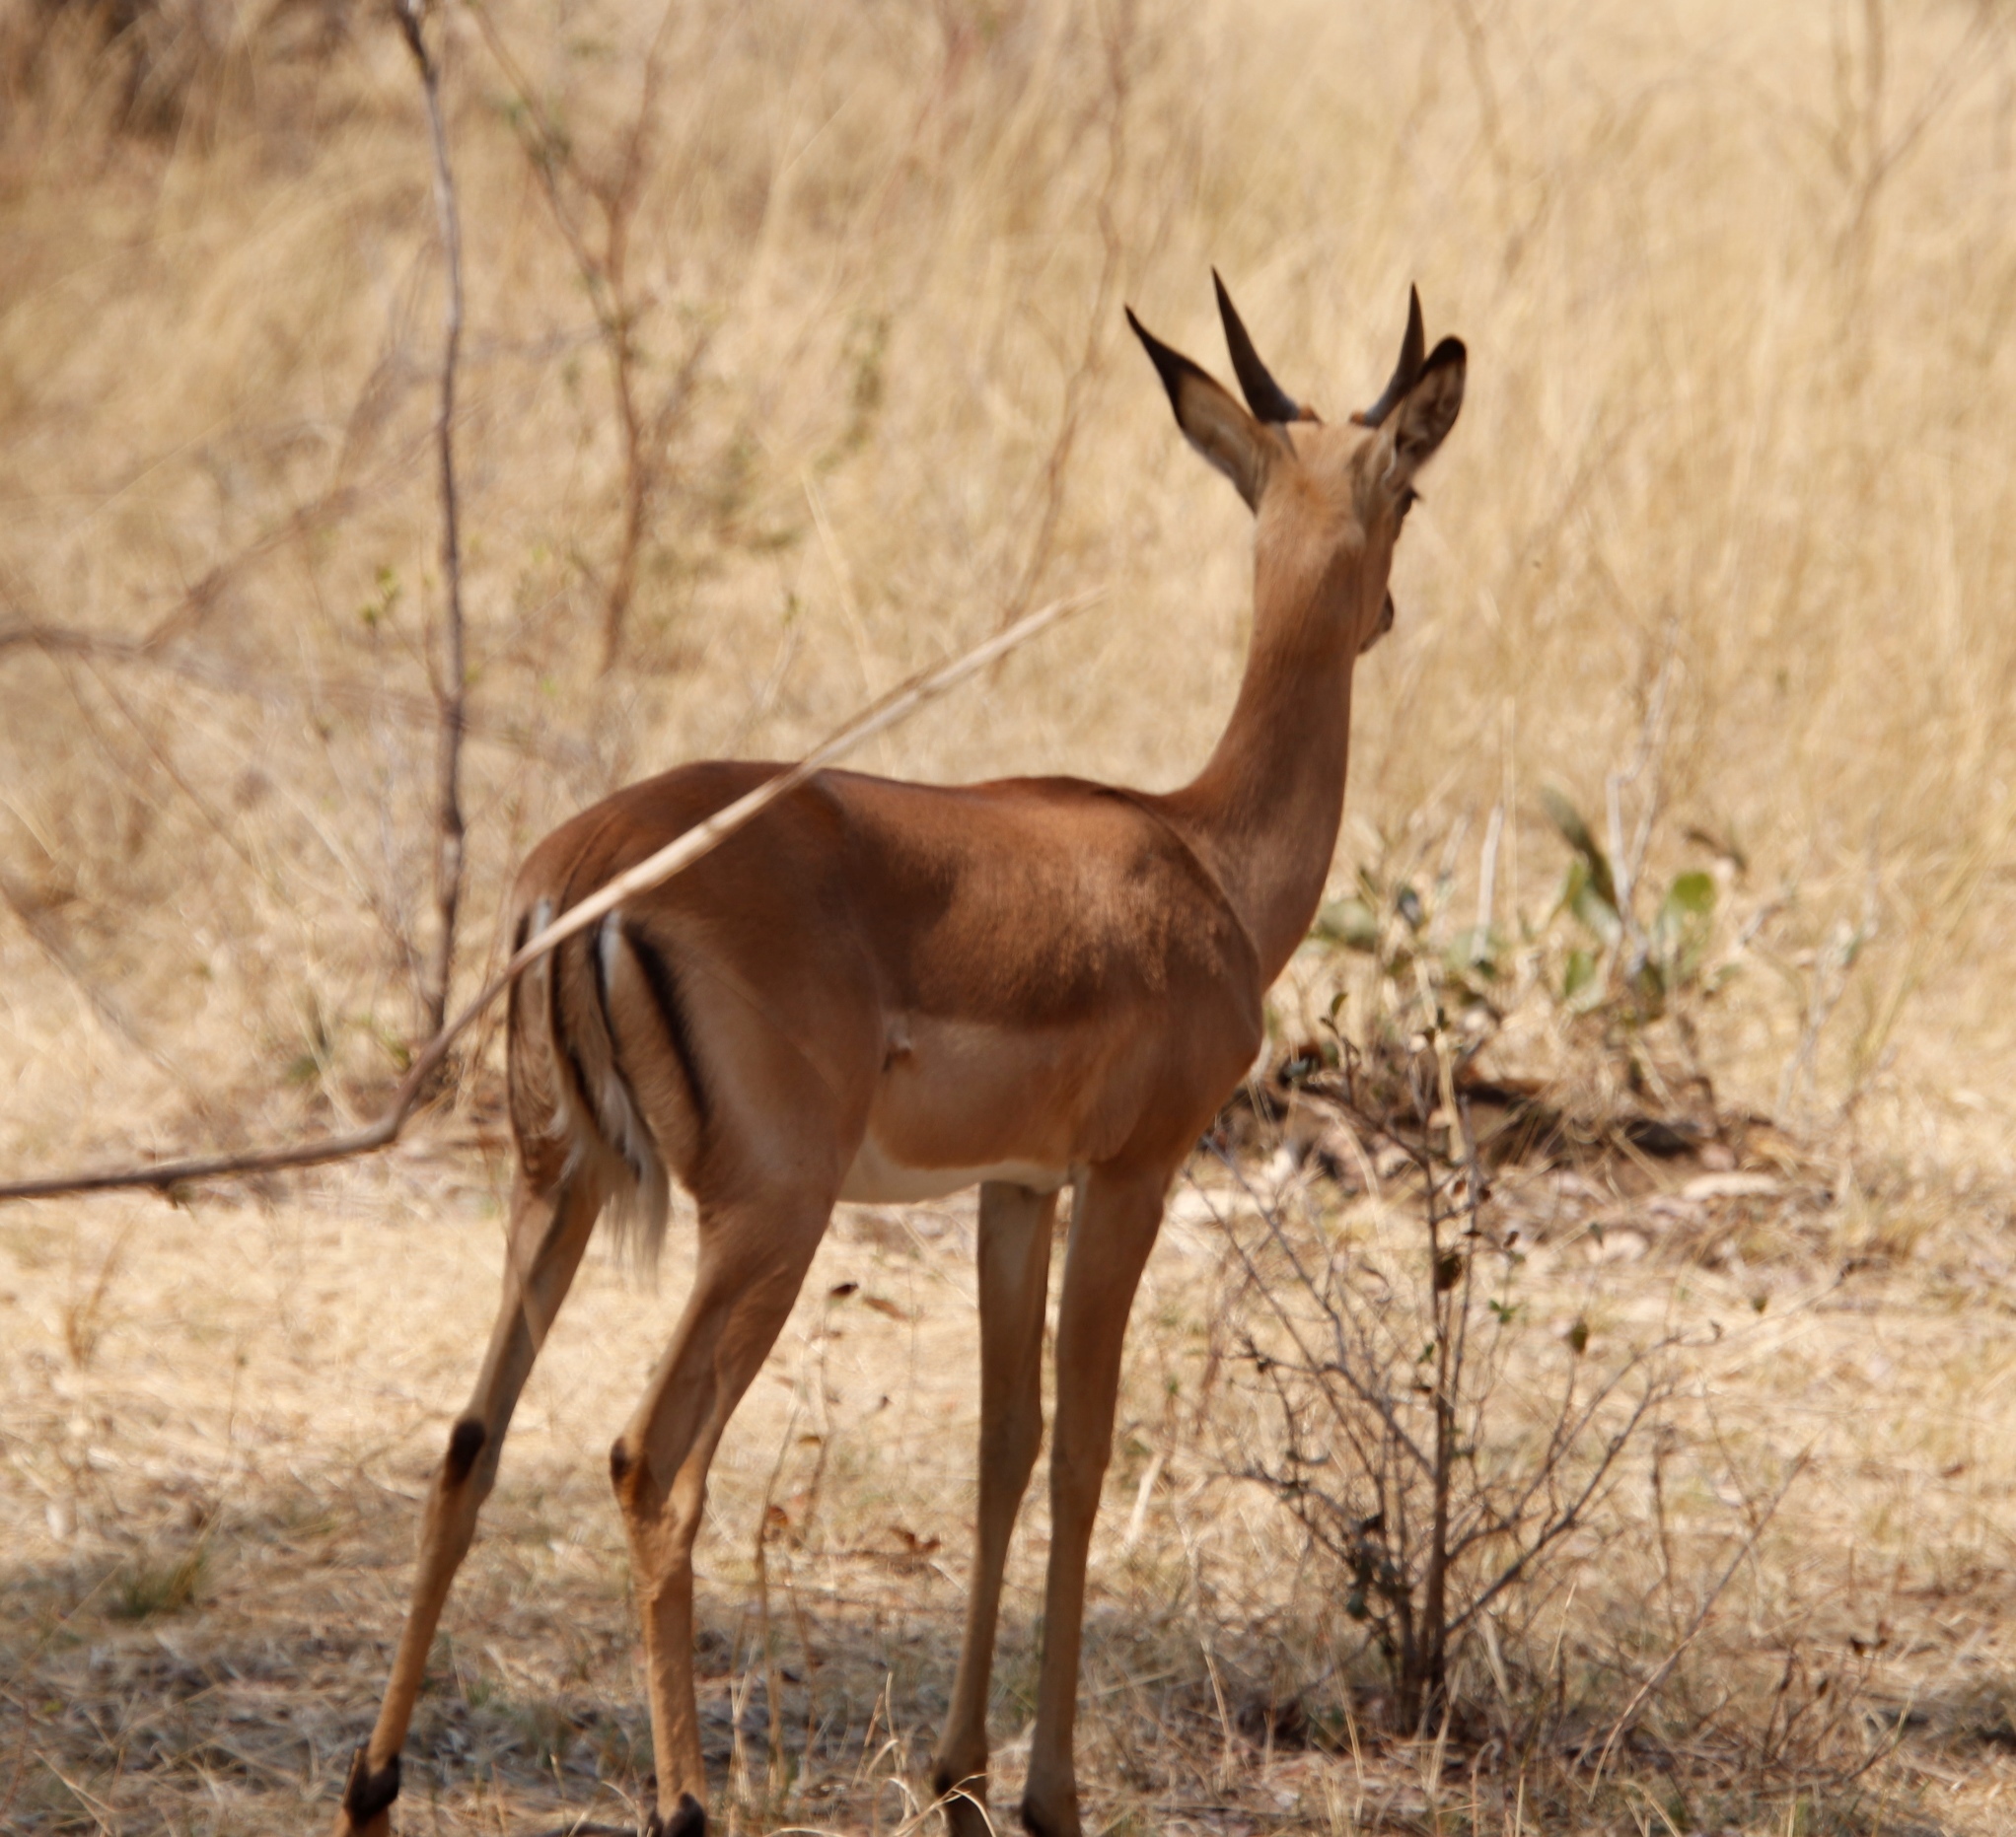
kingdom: Animalia
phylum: Chordata
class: Mammalia
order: Artiodactyla
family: Bovidae
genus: Aepyceros
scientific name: Aepyceros melampus
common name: Impala
